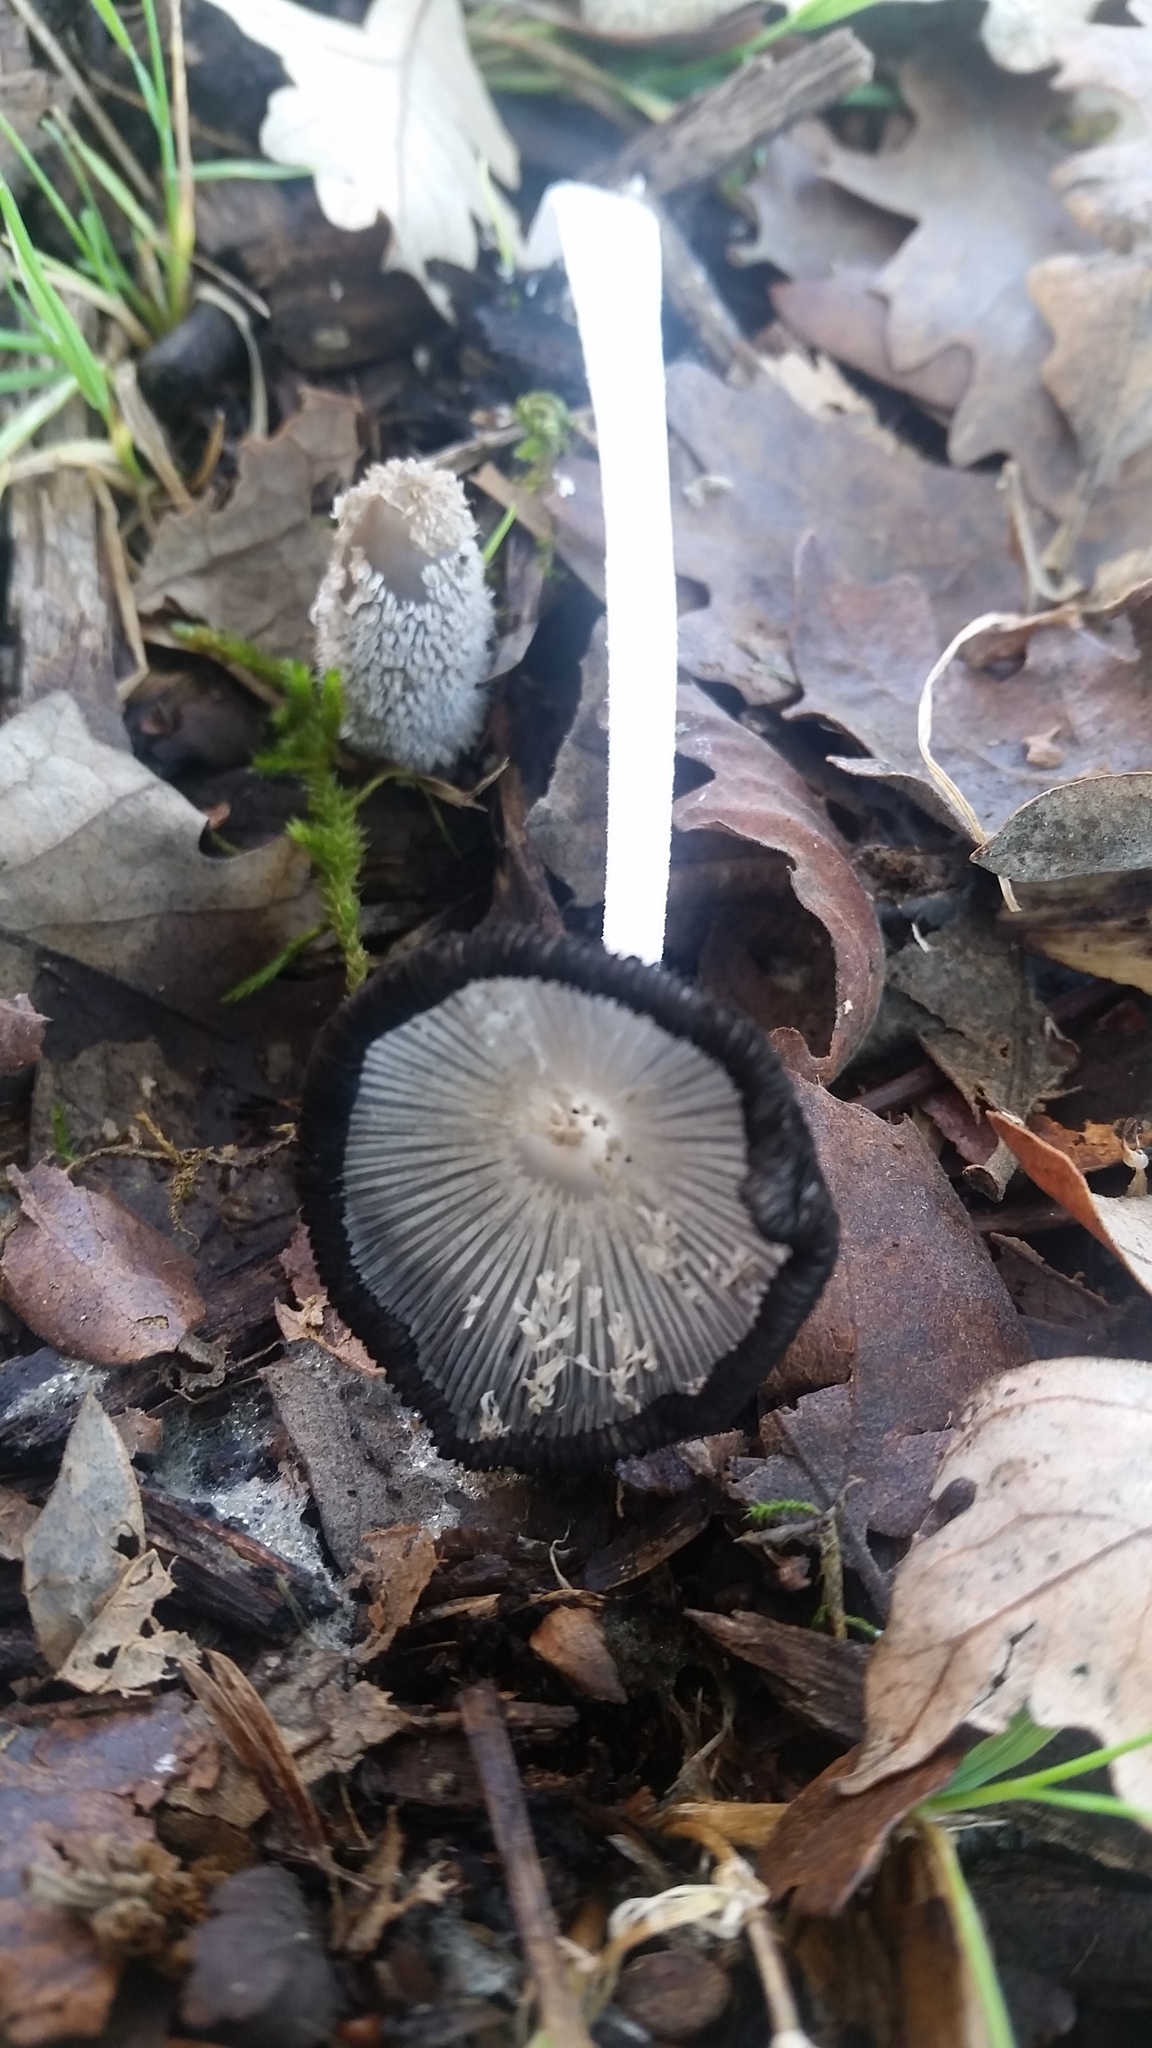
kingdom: Fungi
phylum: Basidiomycota
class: Agaricomycetes
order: Agaricales
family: Psathyrellaceae
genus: Coprinopsis
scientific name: Coprinopsis lagopus
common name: Hare'sfoot inkcap
